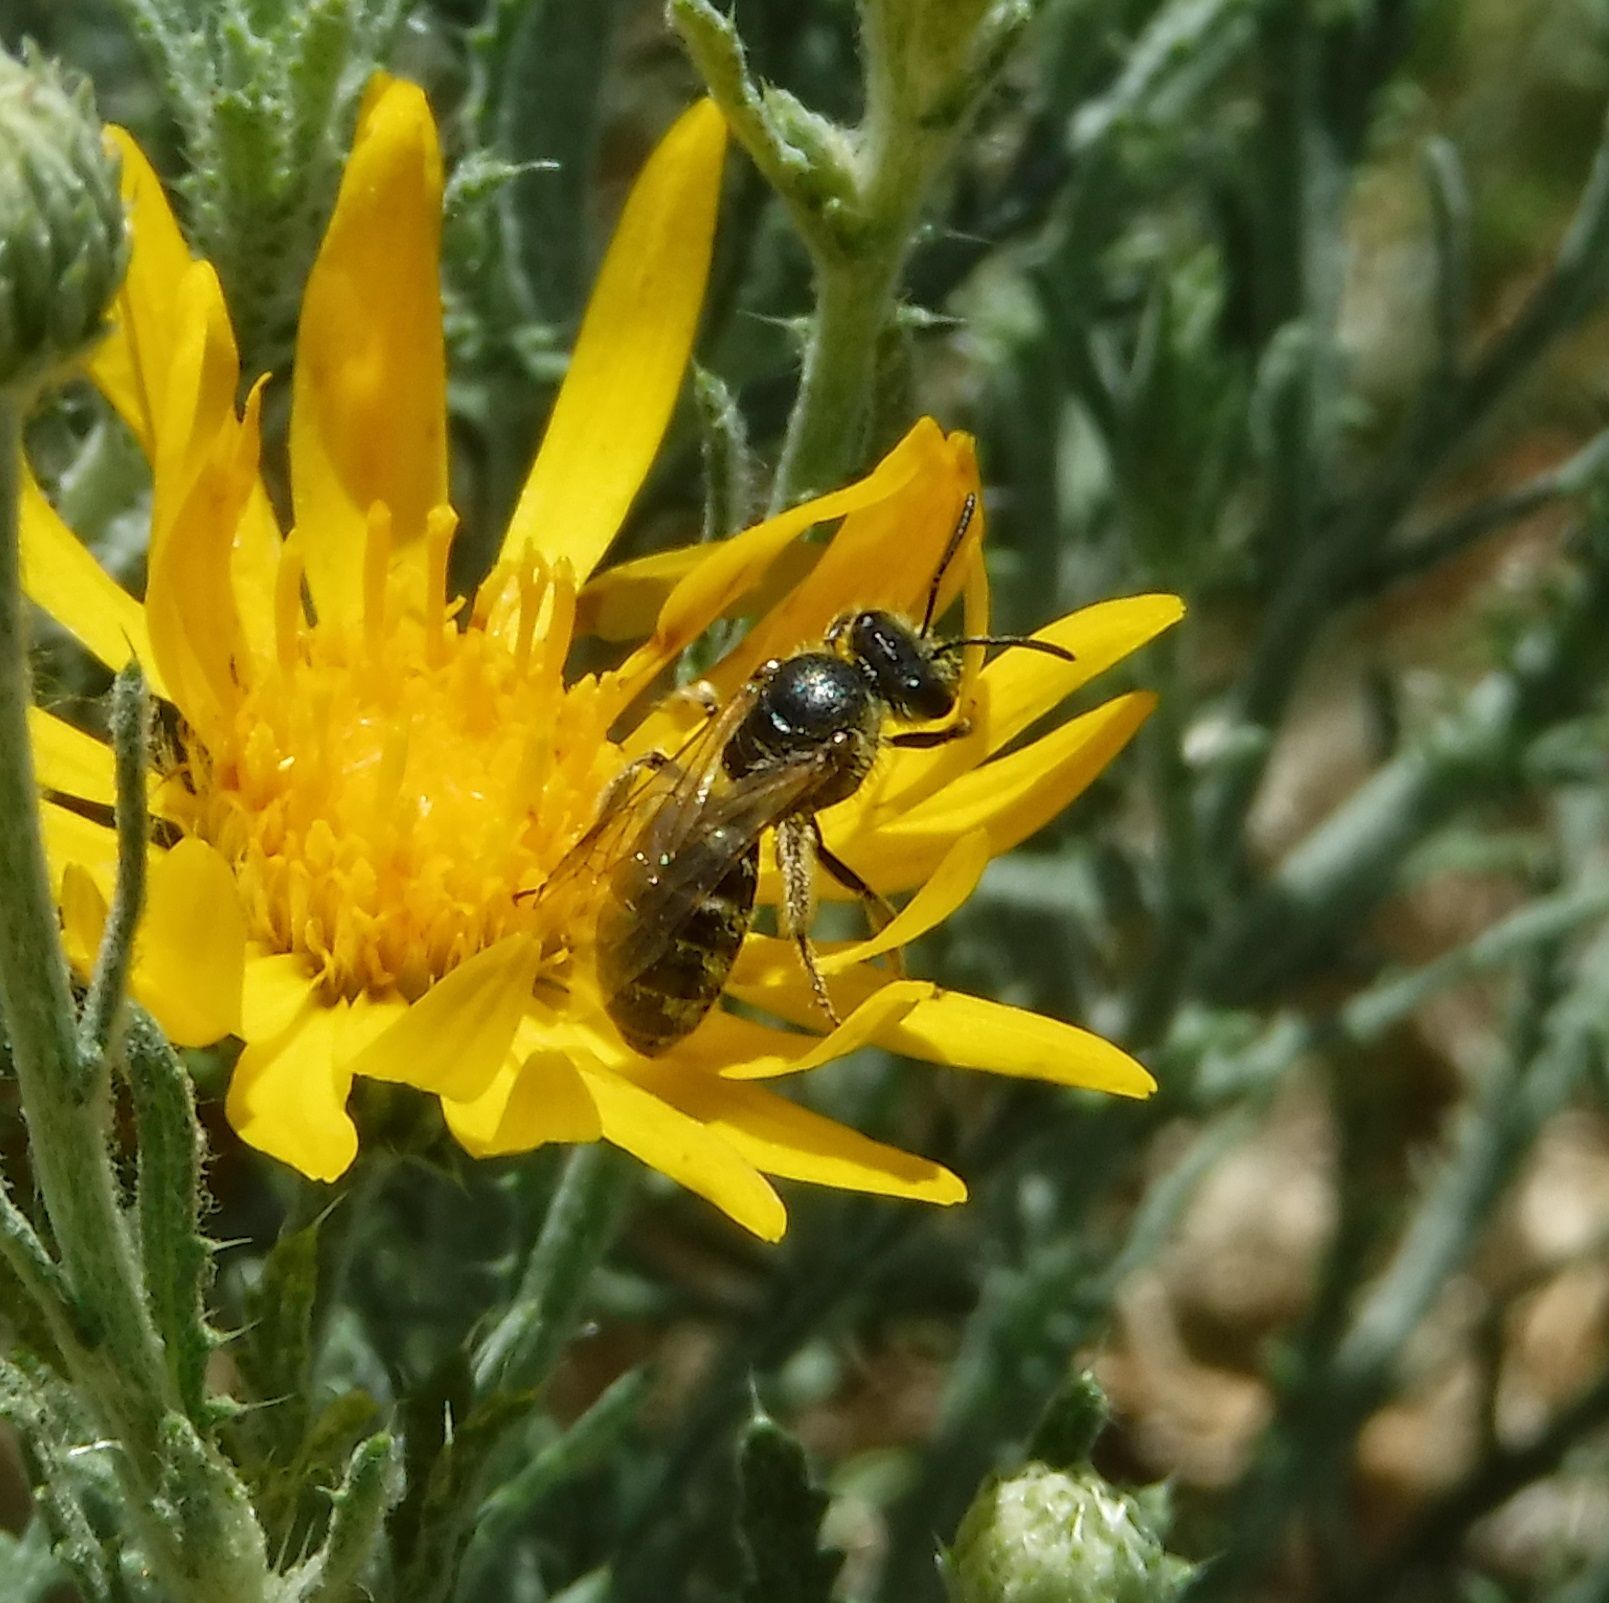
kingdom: Animalia
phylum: Arthropoda
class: Insecta
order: Hymenoptera
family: Halictidae
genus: Lasioglossum
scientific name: Lasioglossum
